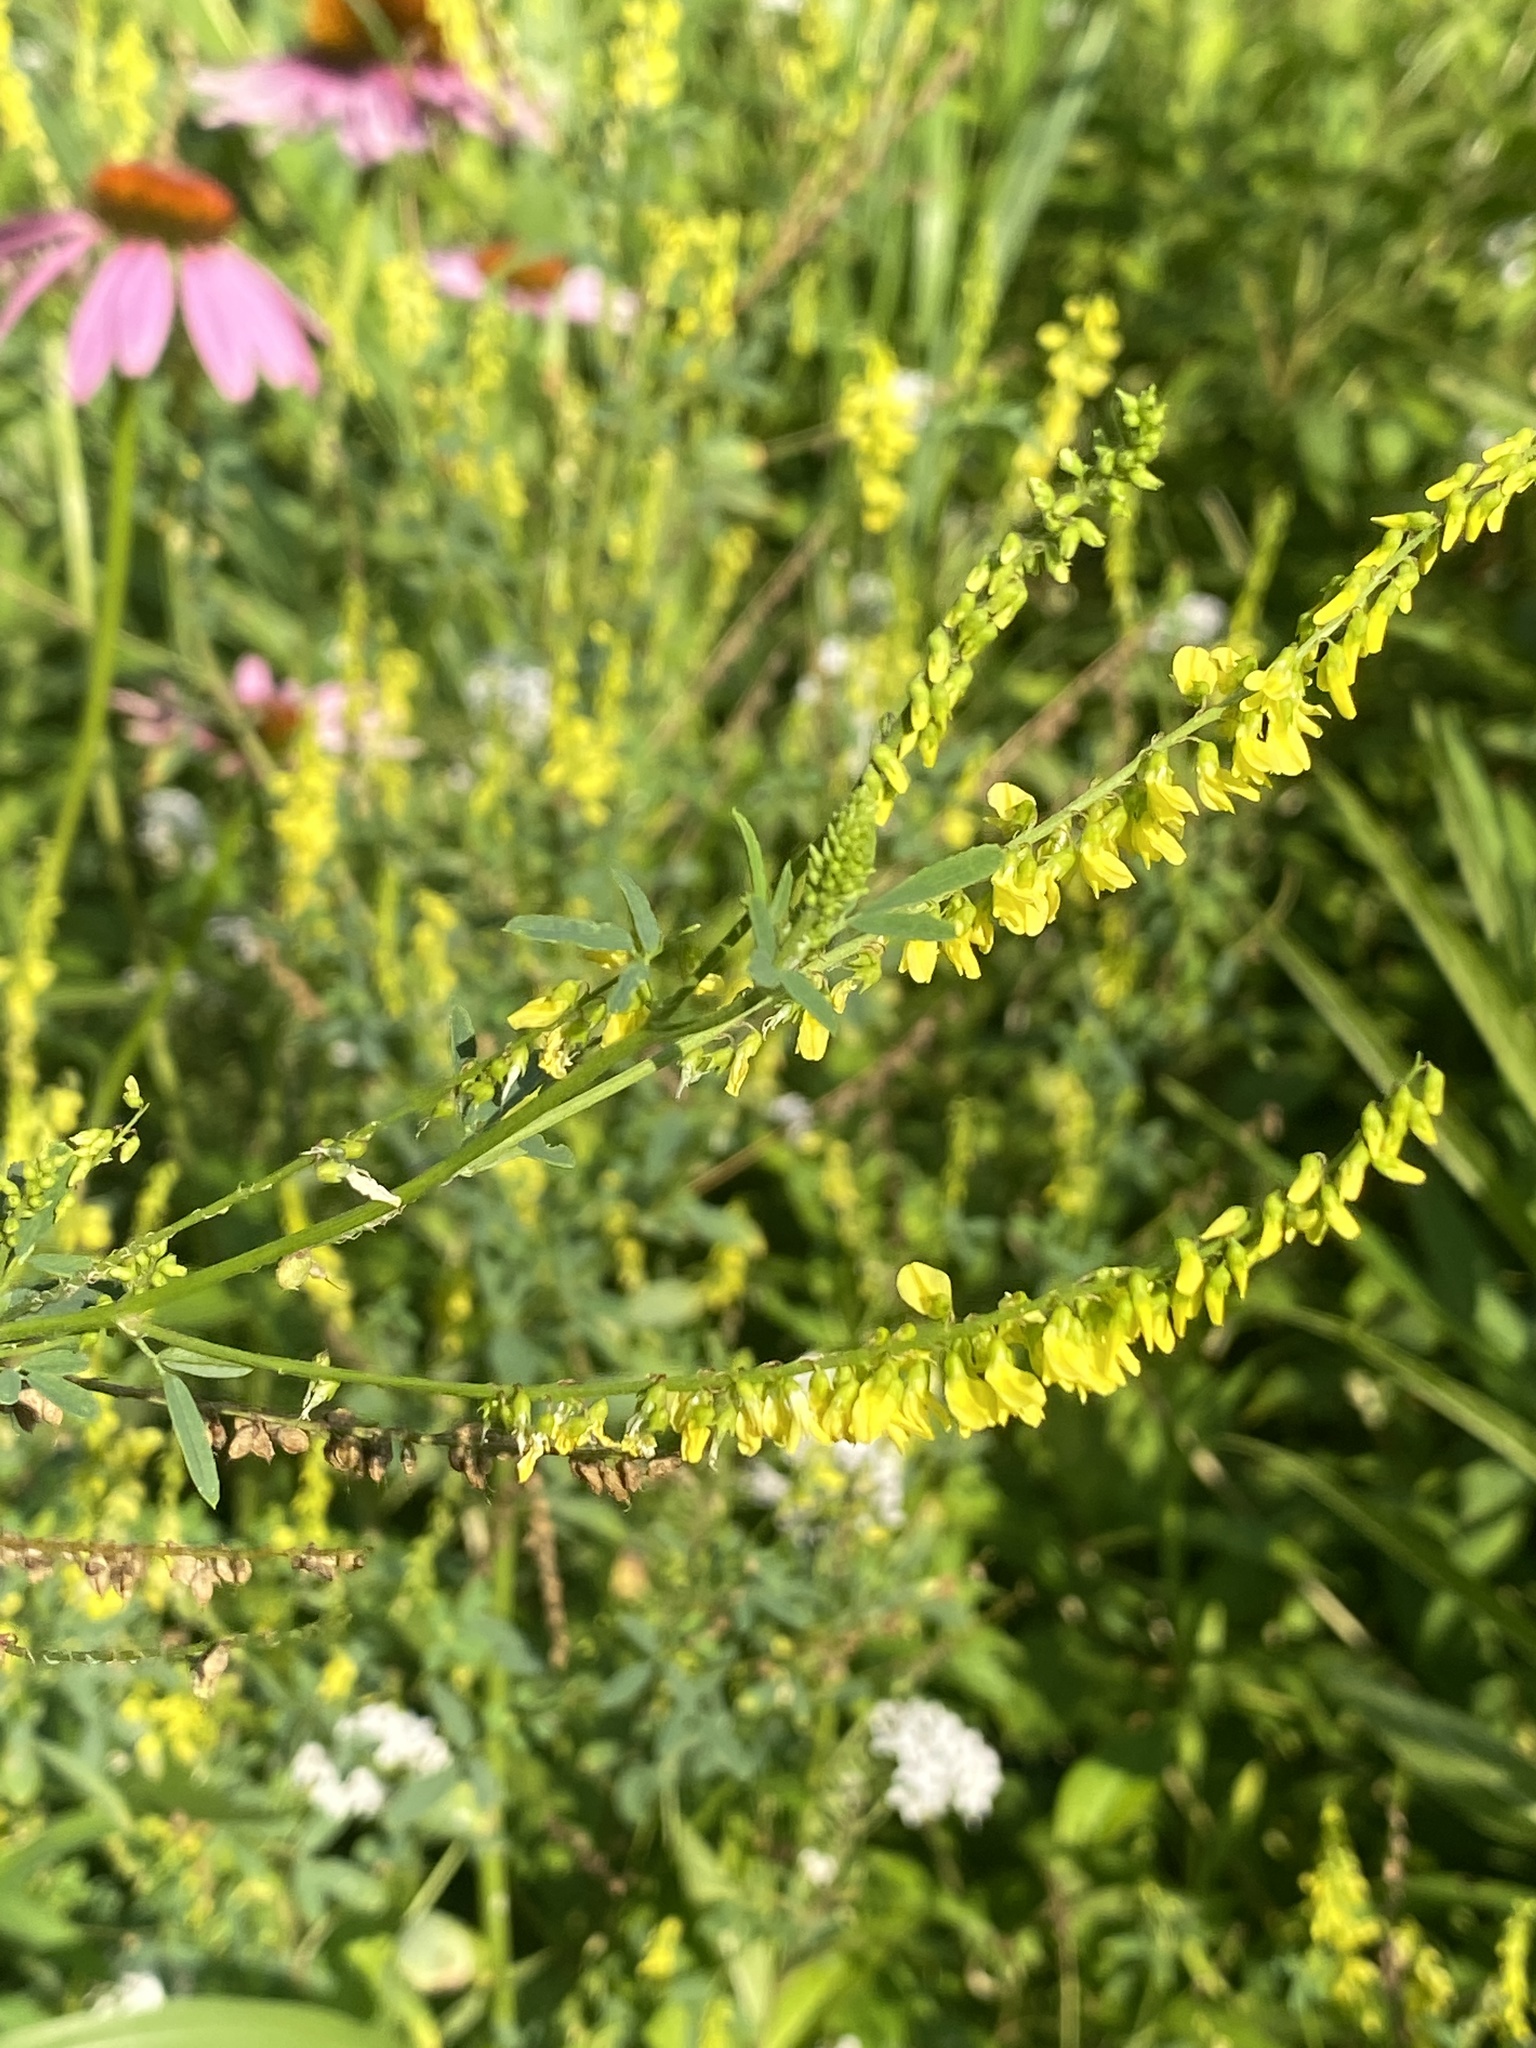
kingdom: Plantae
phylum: Tracheophyta
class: Magnoliopsida
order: Fabales
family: Fabaceae
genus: Melilotus
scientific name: Melilotus officinalis
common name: Sweetclover
